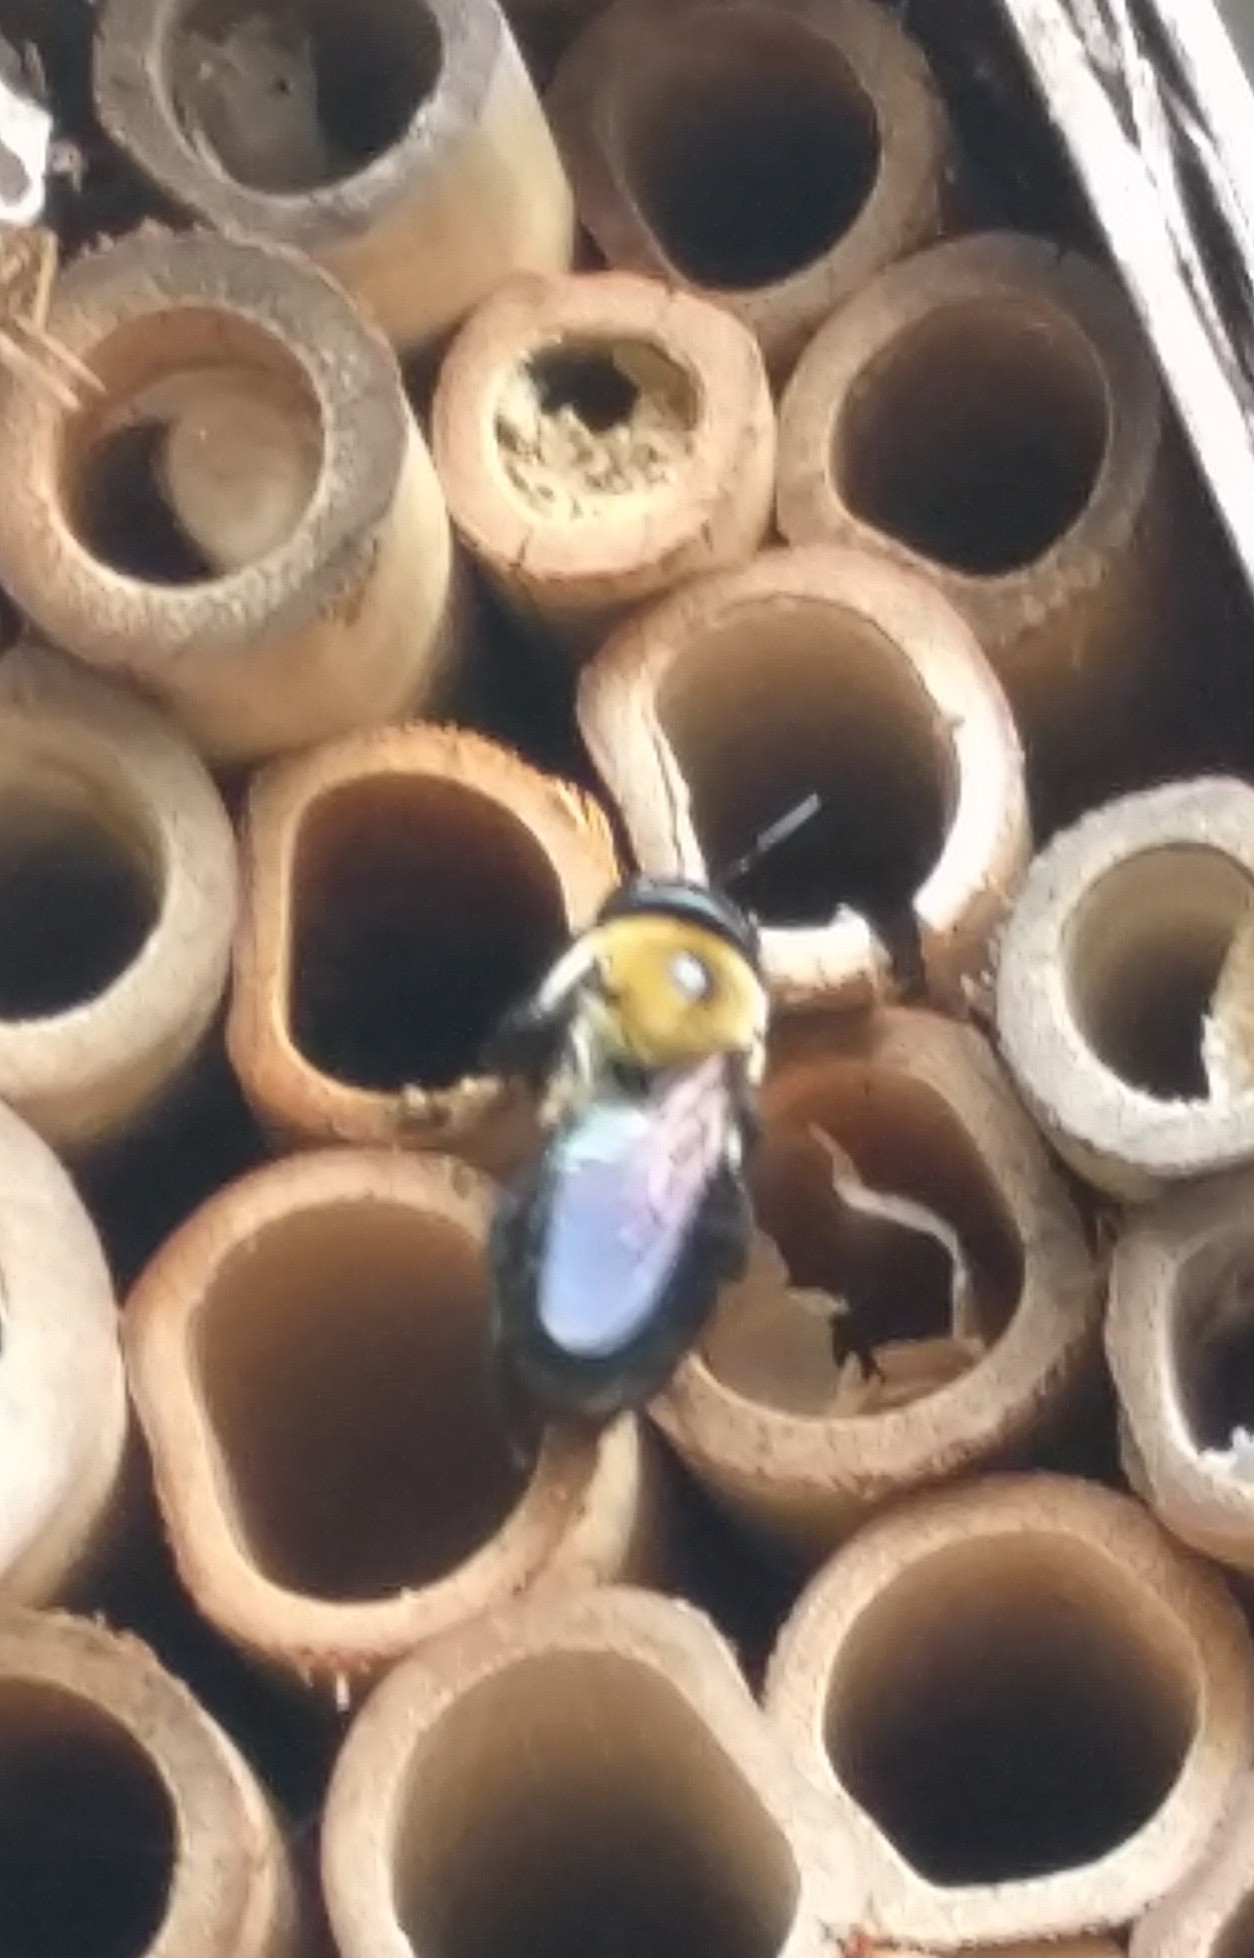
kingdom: Animalia
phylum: Arthropoda
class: Insecta
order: Hymenoptera
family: Apidae
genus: Xylocopa
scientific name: Xylocopa virginica
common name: Carpenter bee
